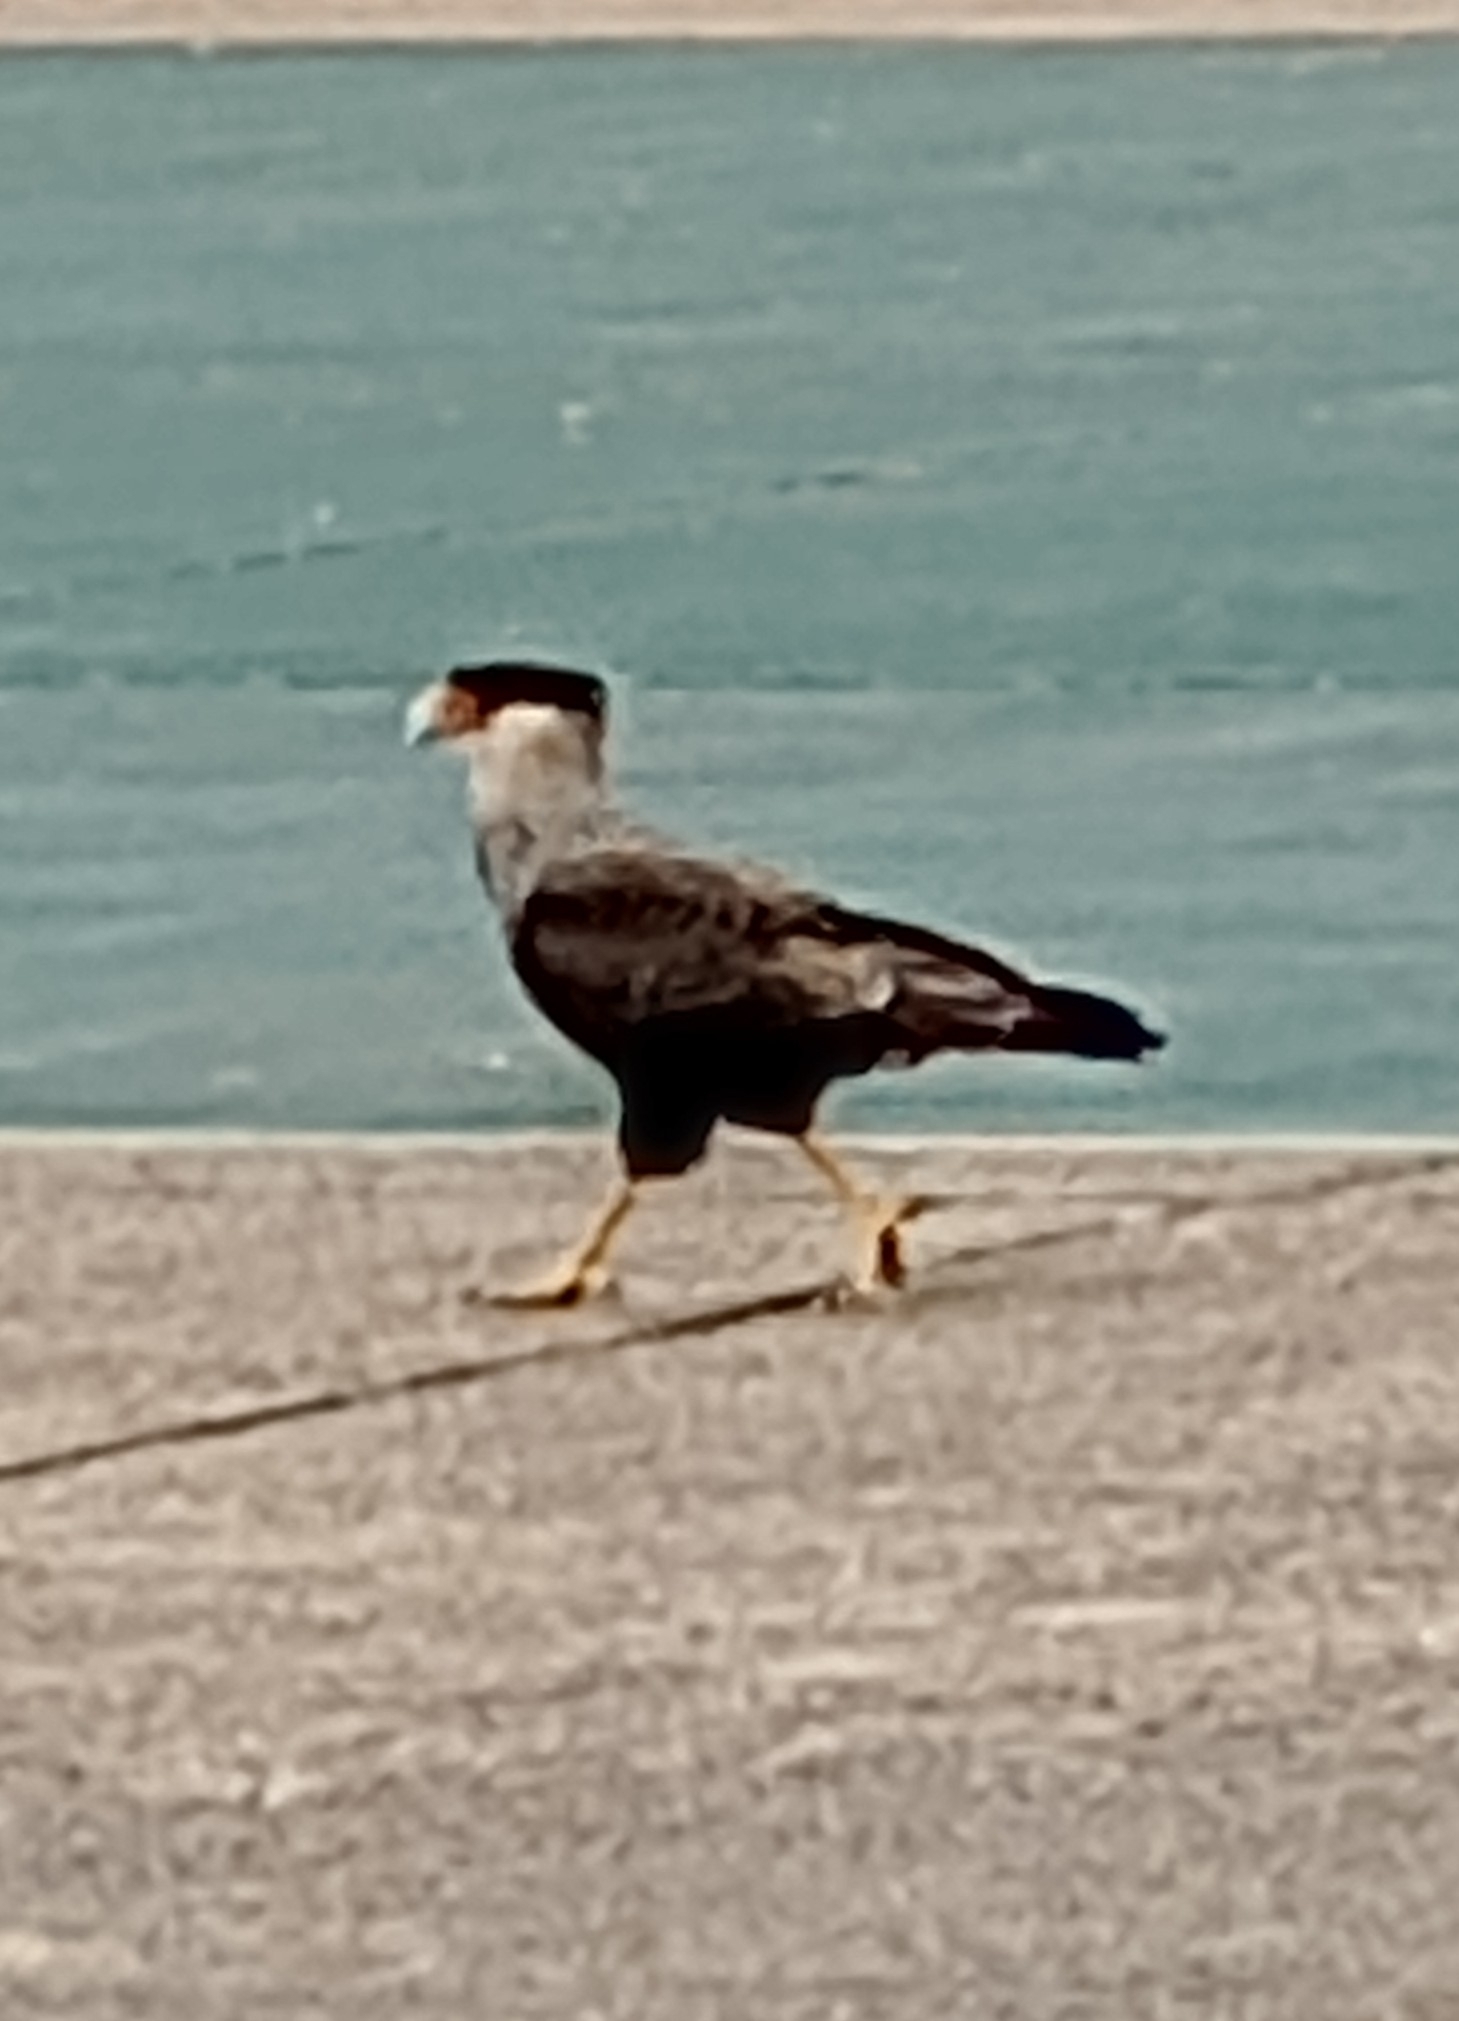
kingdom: Animalia
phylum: Chordata
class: Aves
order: Falconiformes
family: Falconidae
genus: Caracara
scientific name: Caracara plancus
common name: Southern caracara
